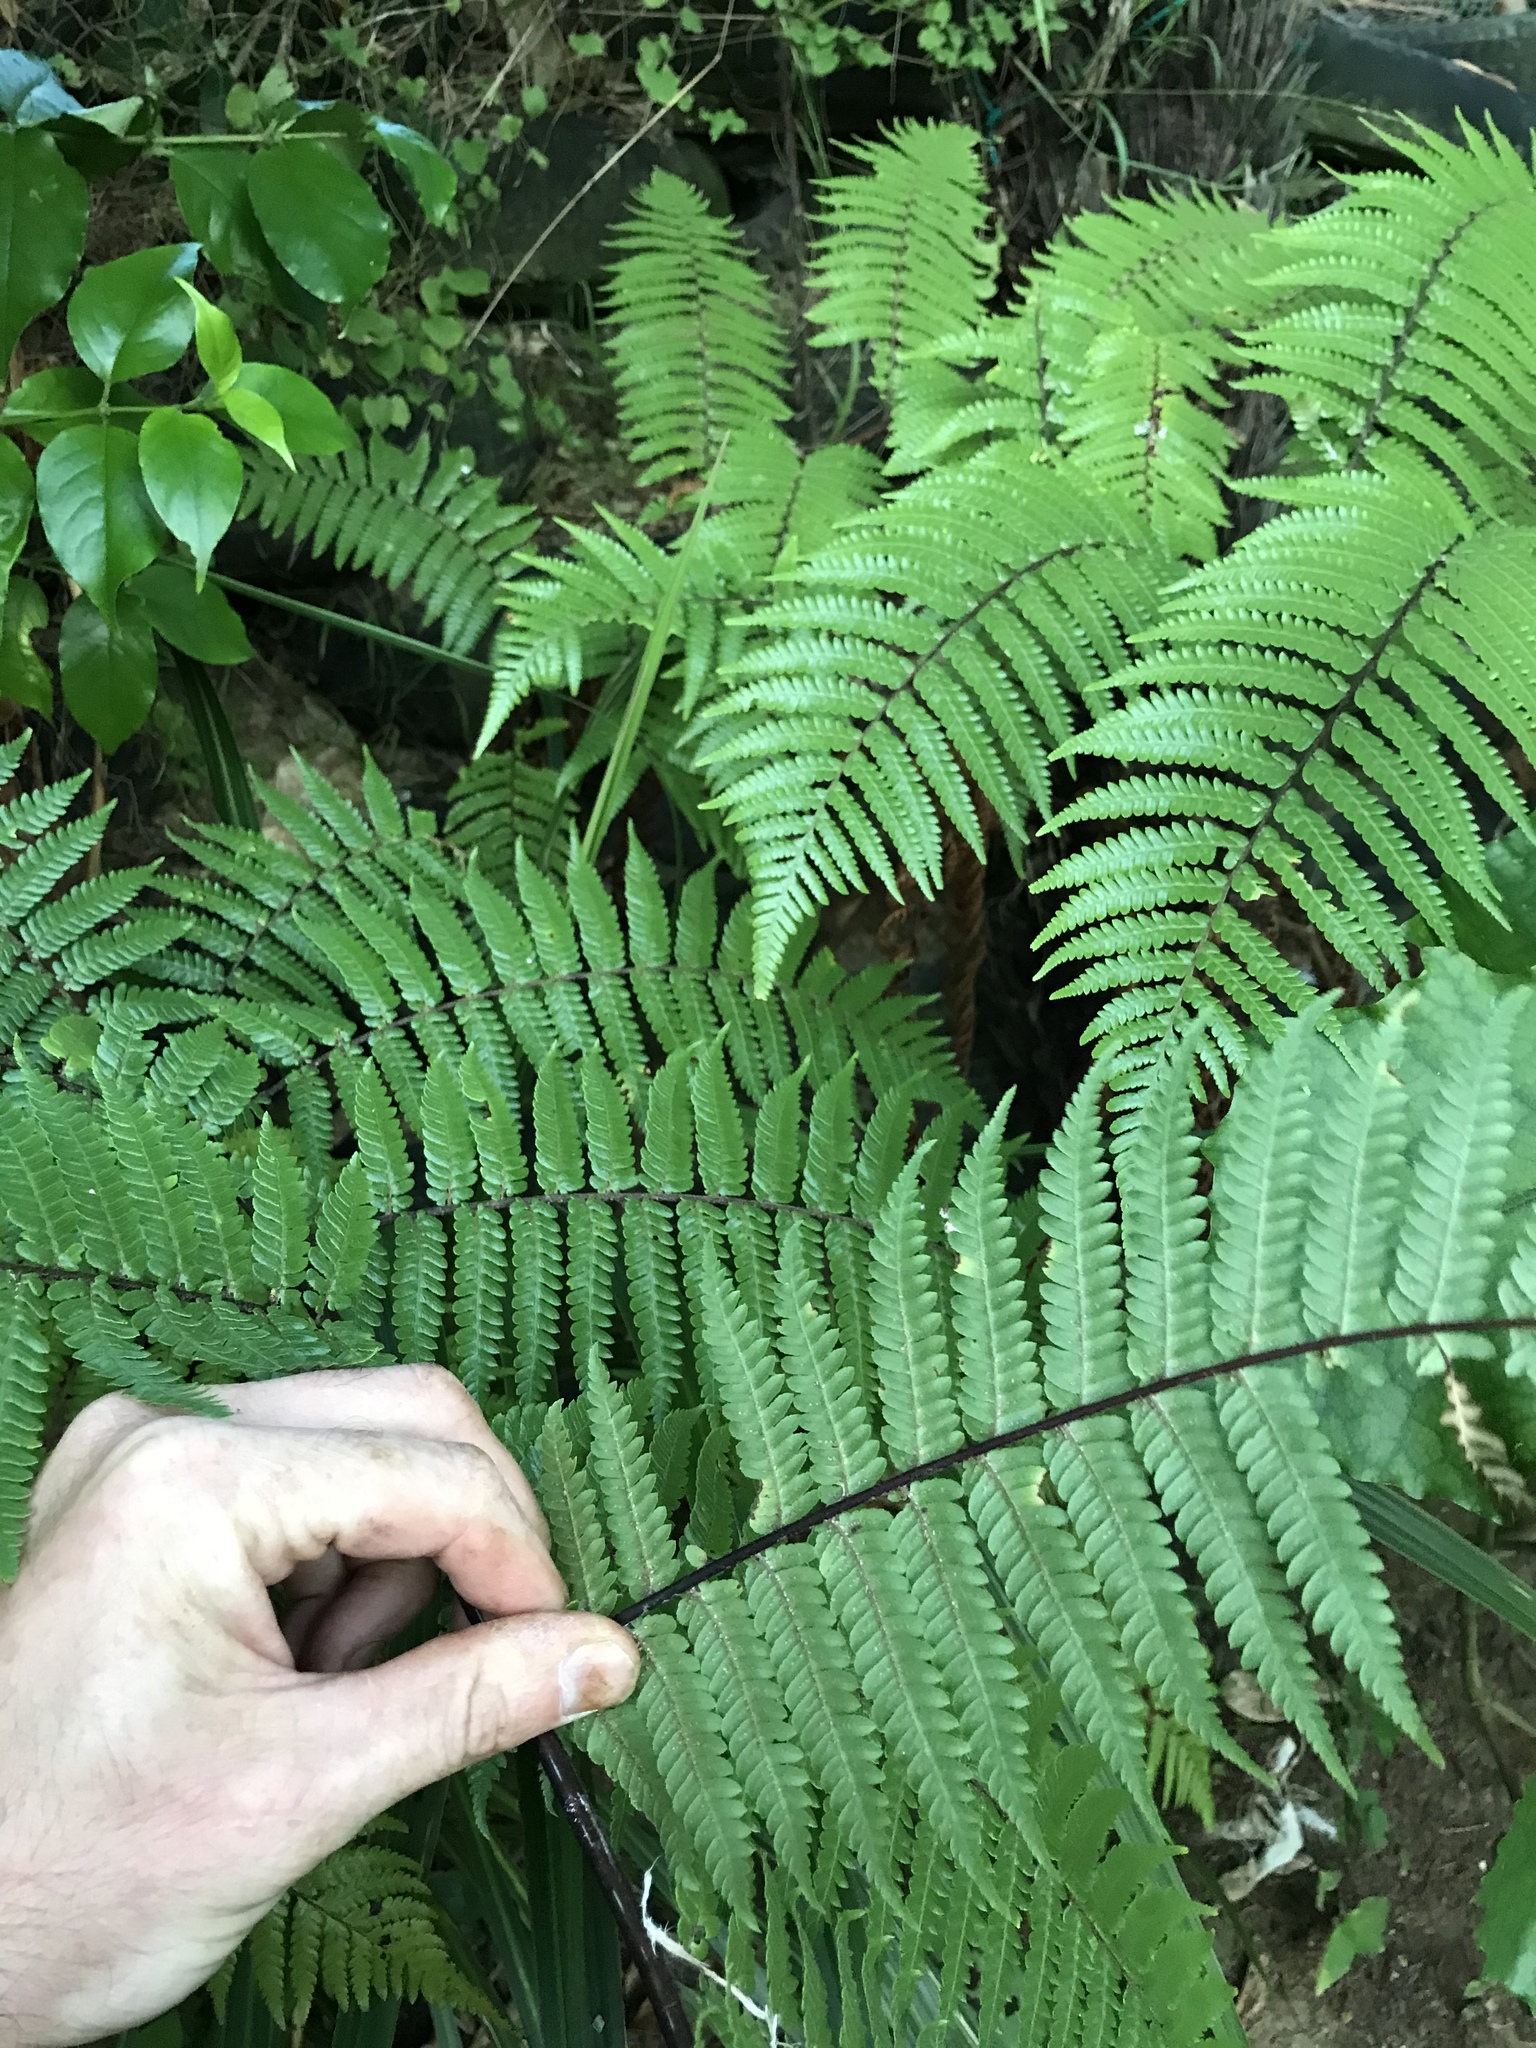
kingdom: Plantae
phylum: Tracheophyta
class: Polypodiopsida
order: Cyatheales
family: Cyatheaceae
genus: Sphaeropteris
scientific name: Sphaeropteris medullaris
